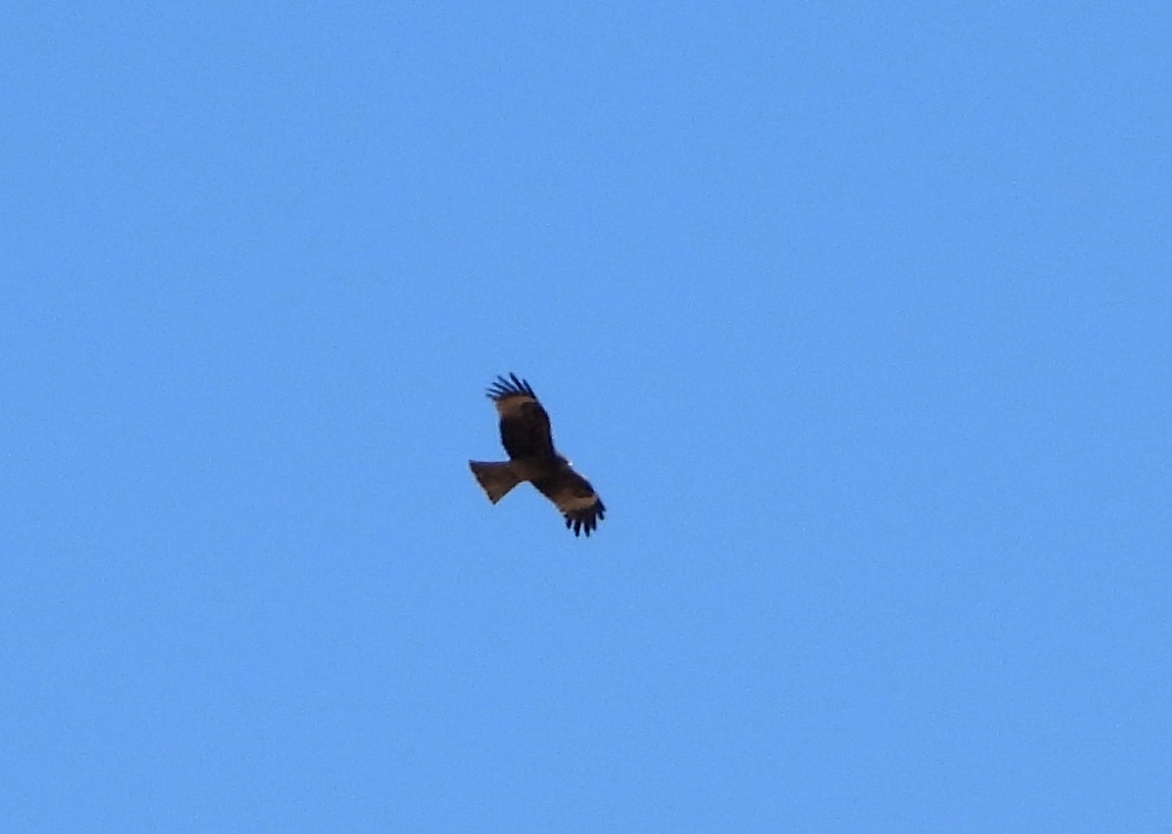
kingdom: Animalia
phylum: Chordata
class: Aves
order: Accipitriformes
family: Accipitridae
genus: Milvus
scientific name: Milvus migrans
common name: Black kite
